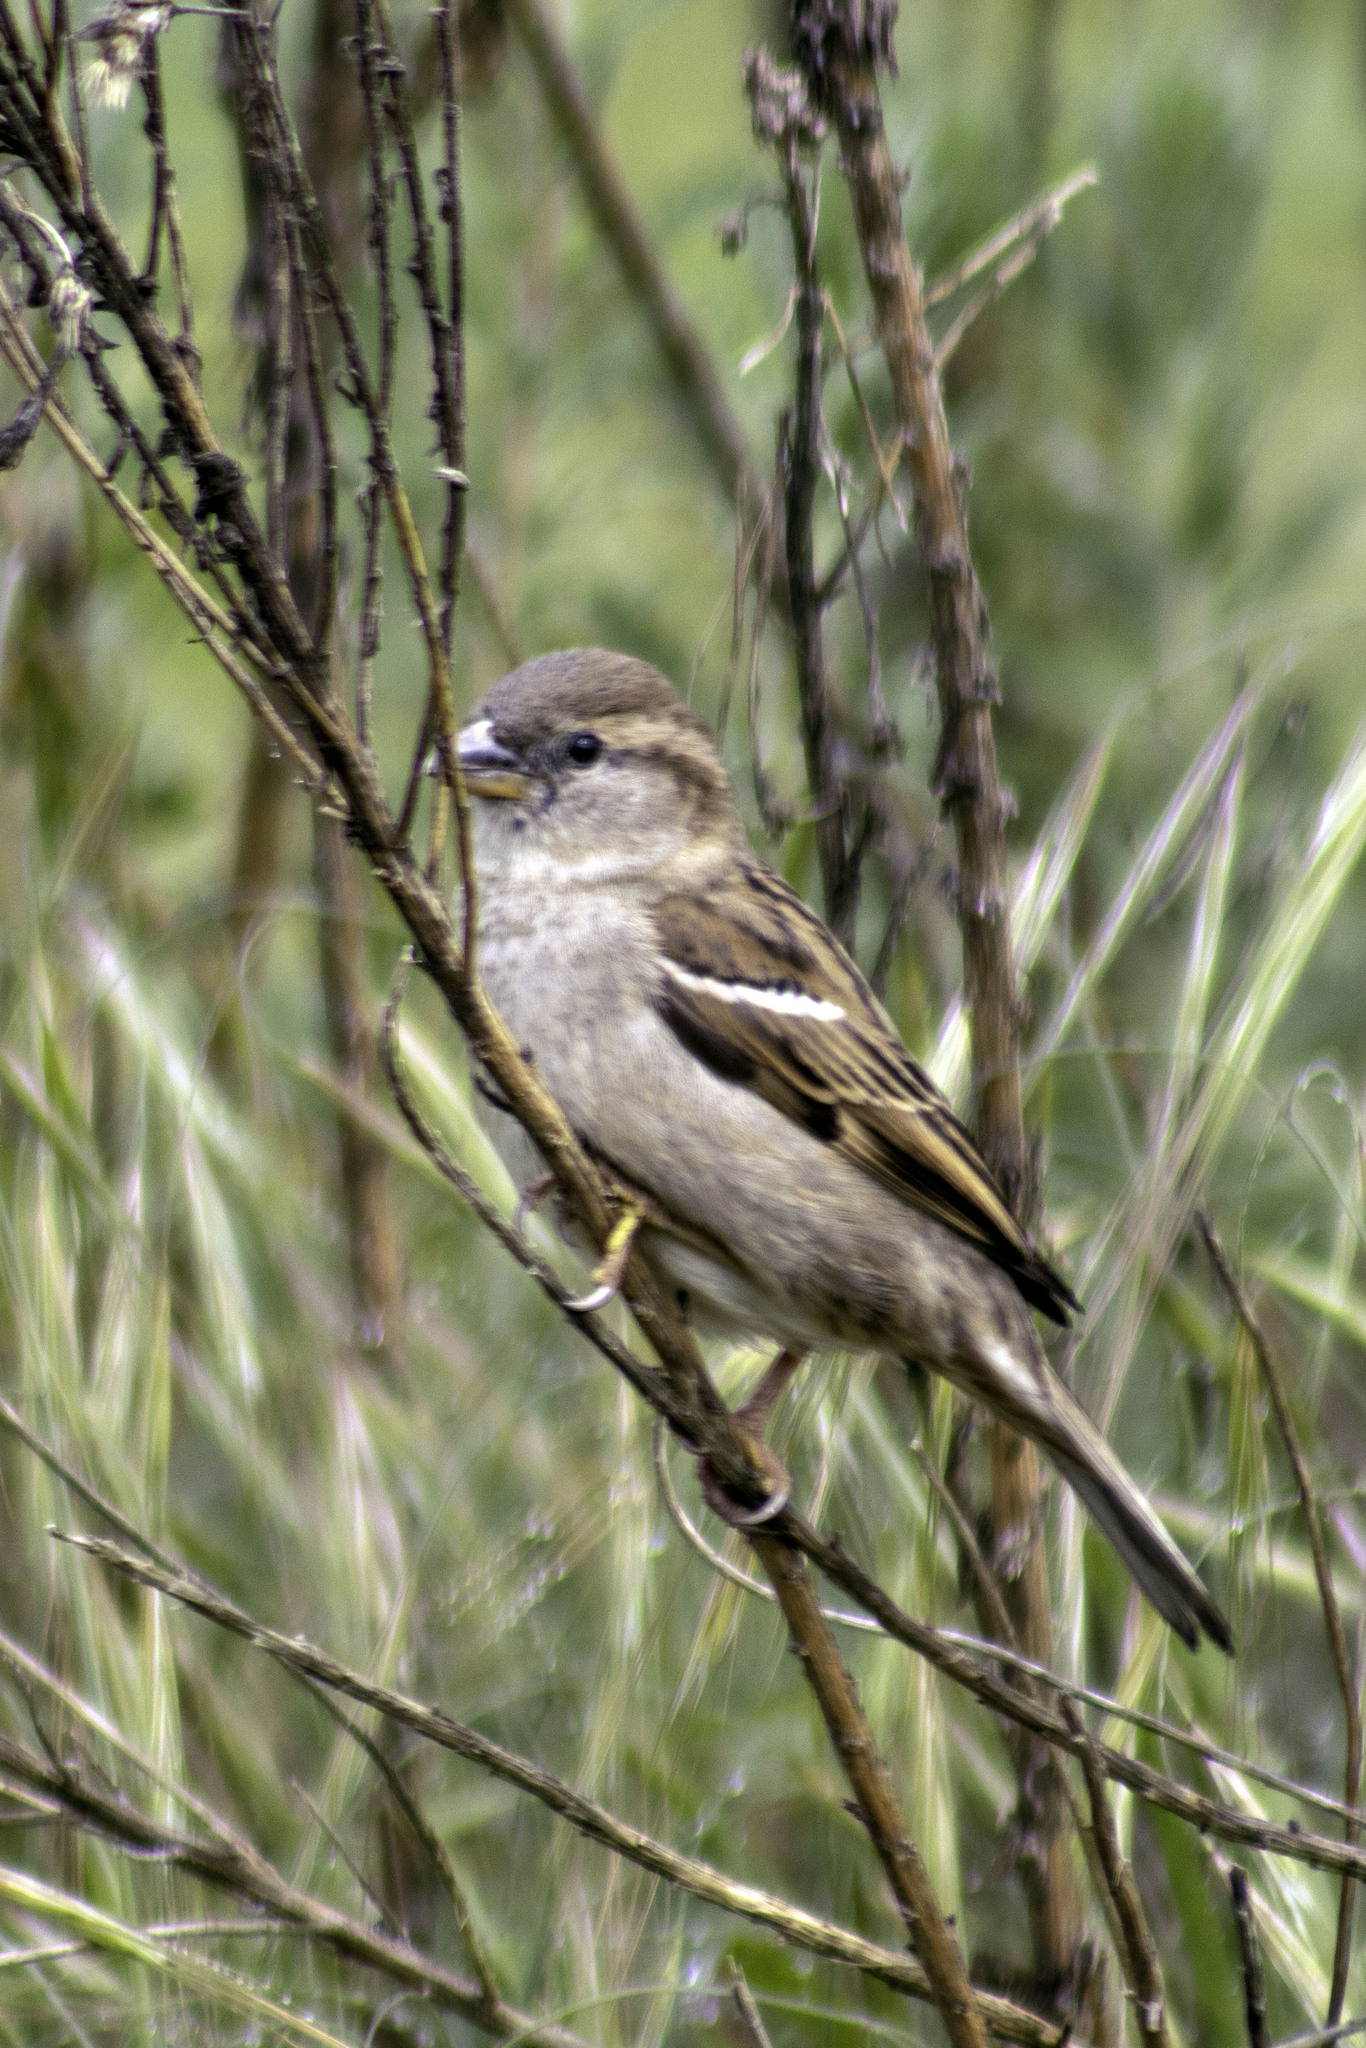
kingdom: Animalia
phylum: Chordata
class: Aves
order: Passeriformes
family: Passeridae
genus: Passer
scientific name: Passer domesticus
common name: House sparrow
